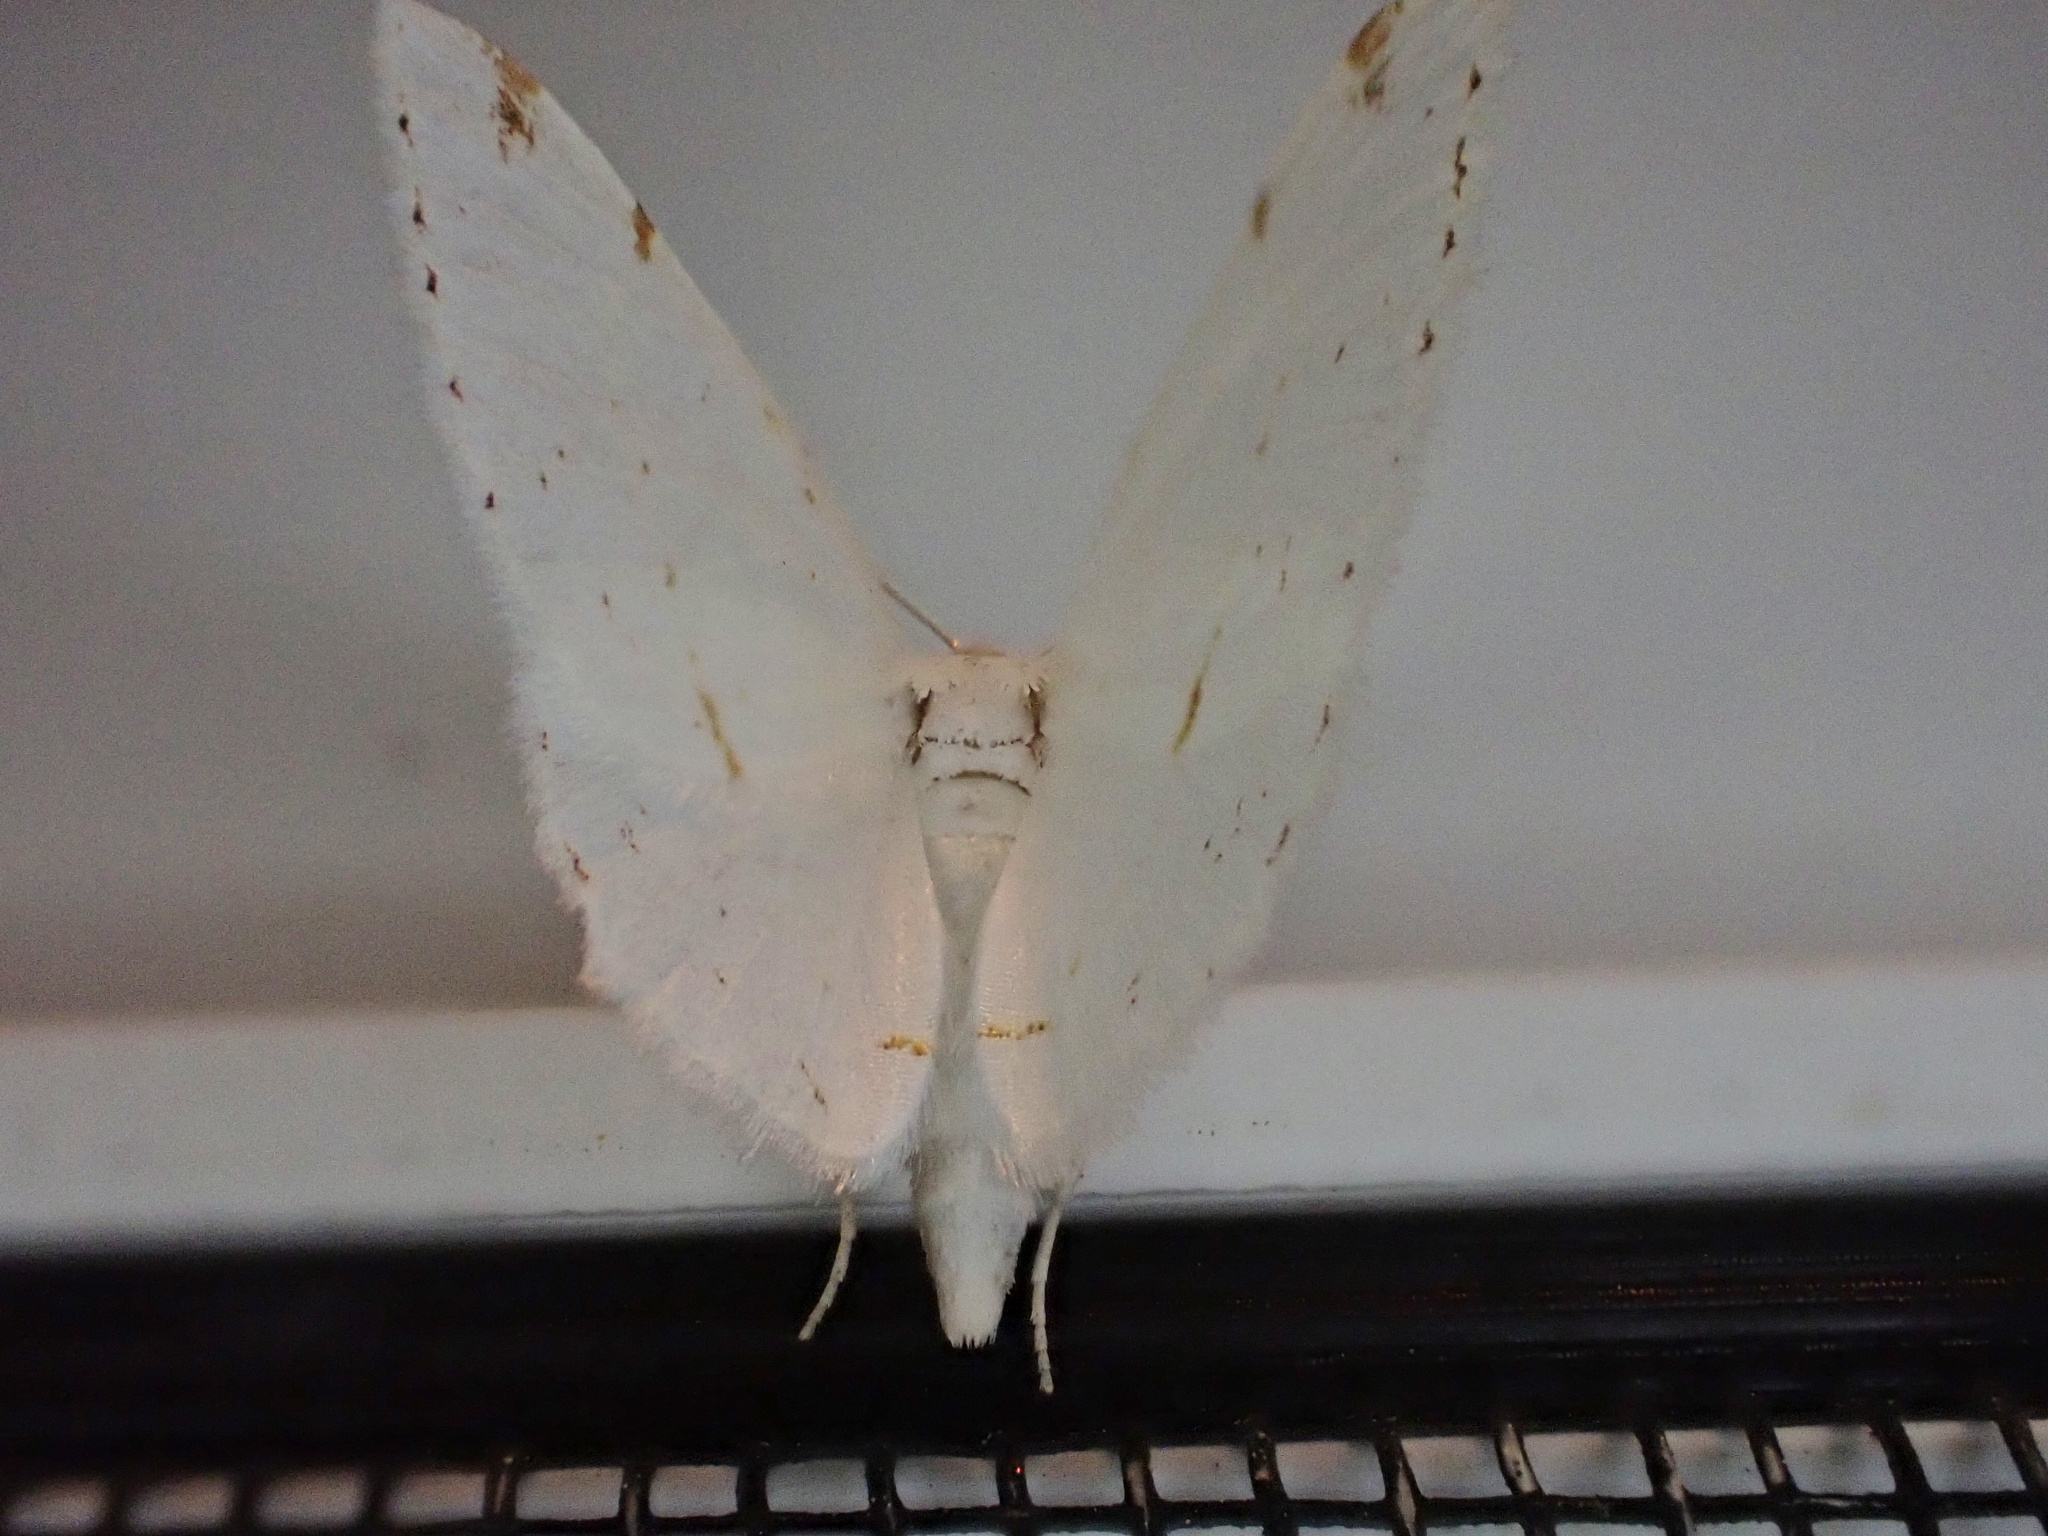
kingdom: Animalia
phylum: Arthropoda
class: Insecta
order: Lepidoptera
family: Geometridae
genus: Macaria
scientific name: Macaria pustularia
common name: Lesser maple spanworm moth
